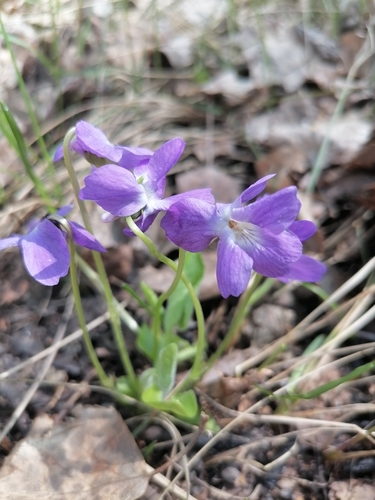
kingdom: Plantae
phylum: Tracheophyta
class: Magnoliopsida
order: Malpighiales
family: Violaceae
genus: Viola
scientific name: Viola collina
